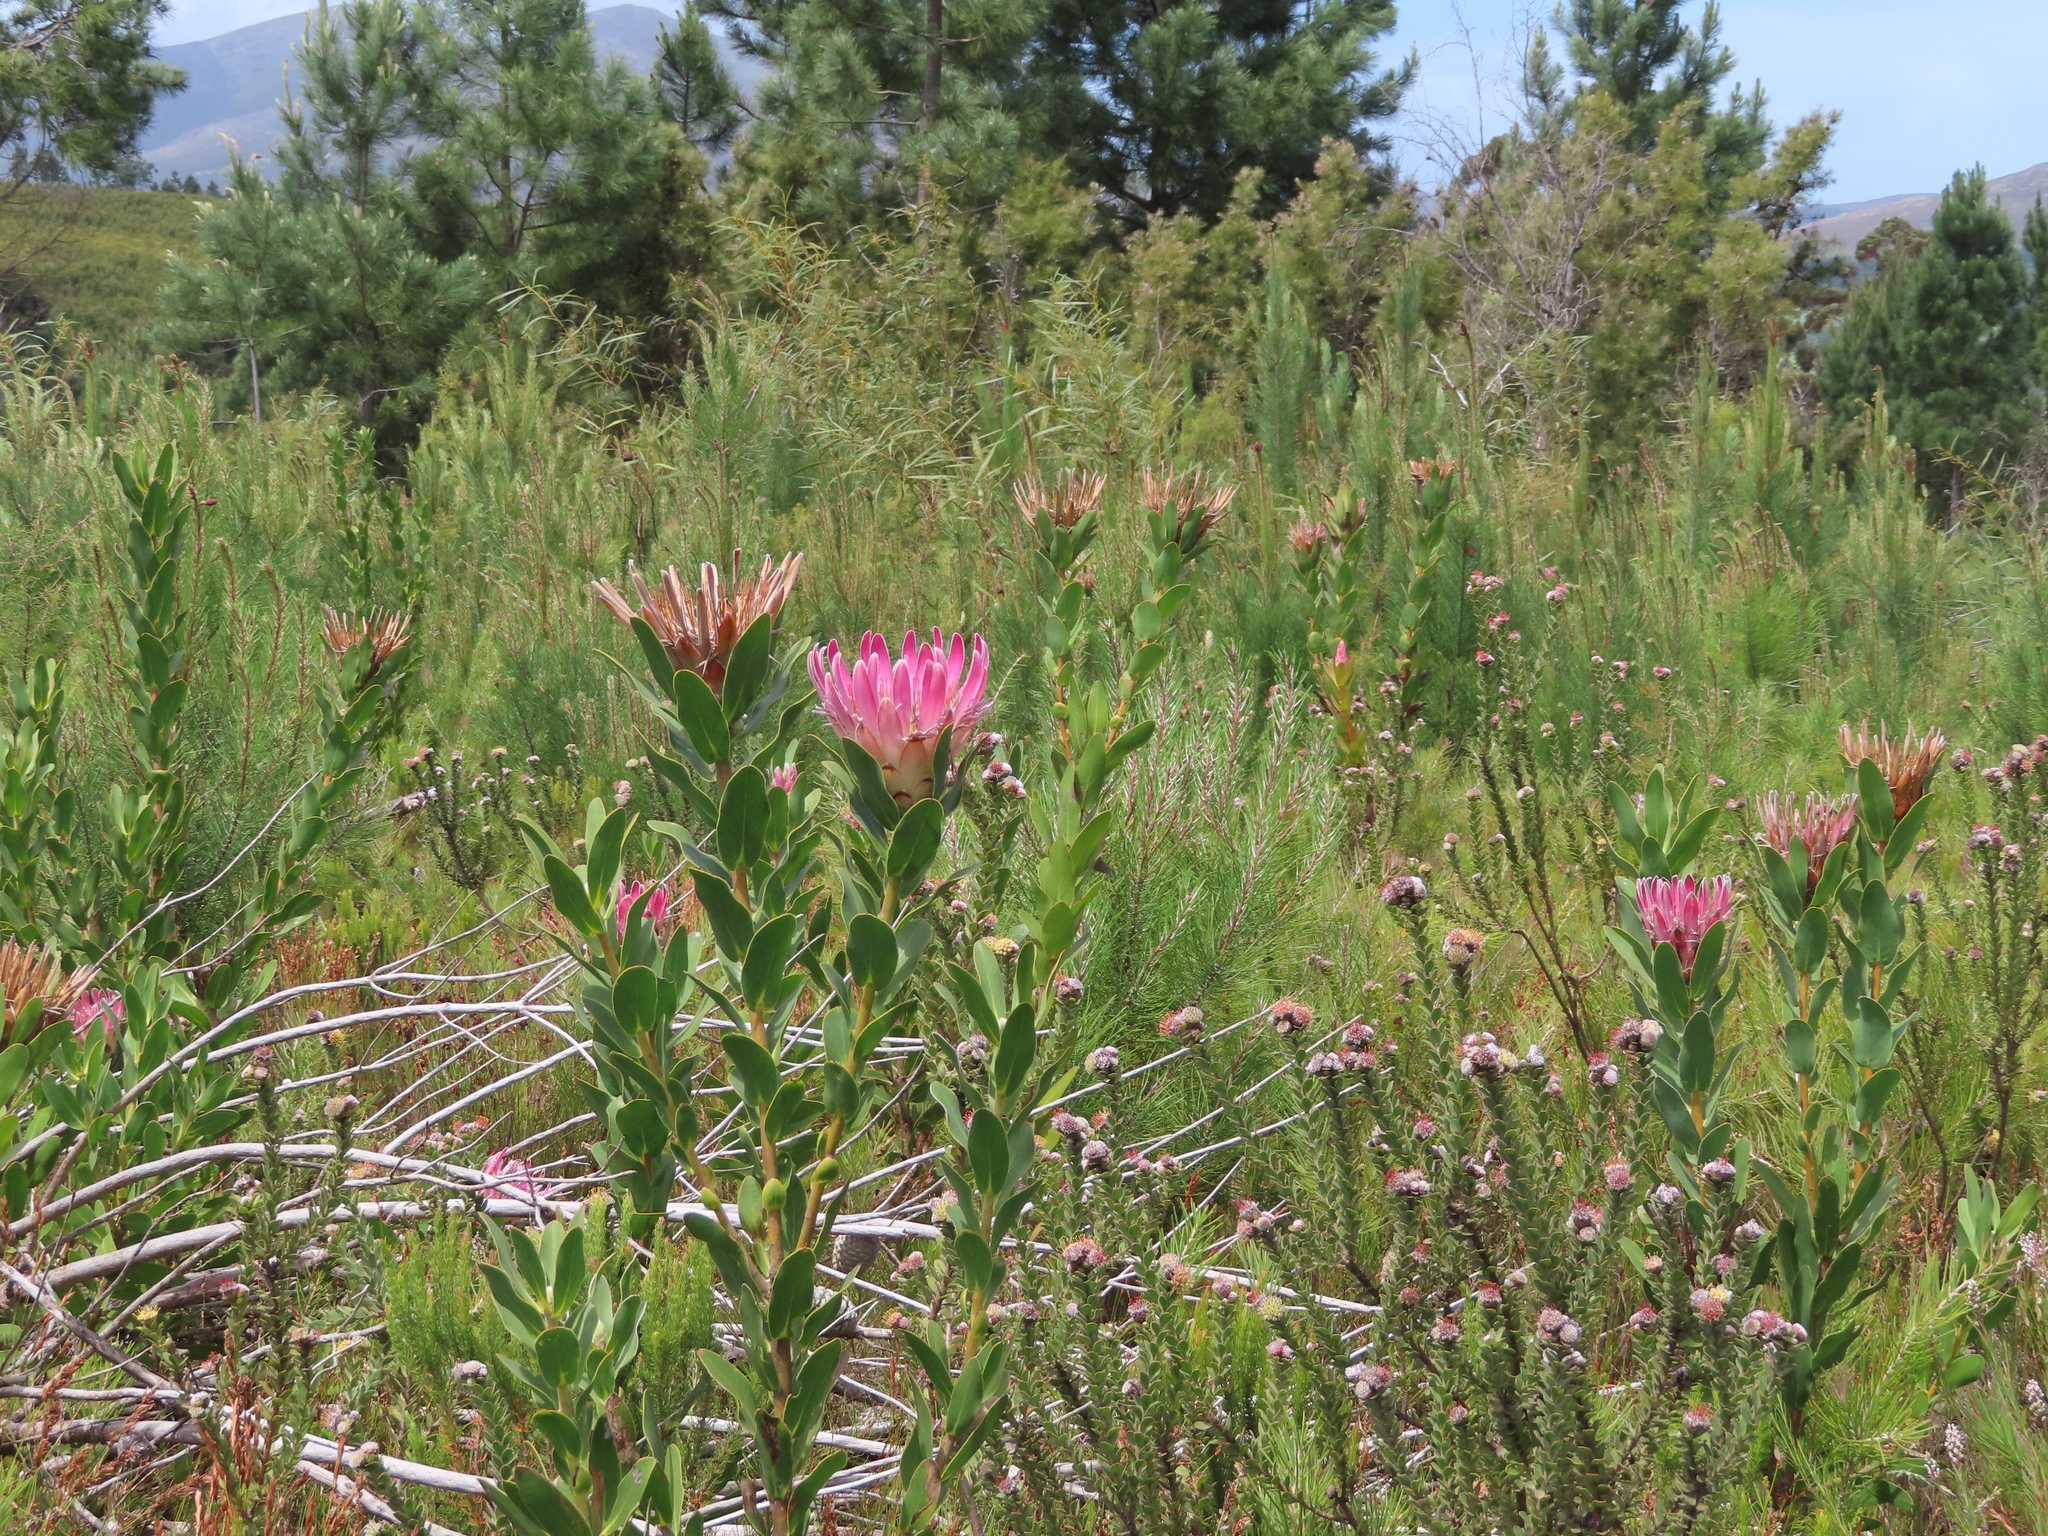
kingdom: Plantae
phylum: Tracheophyta
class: Magnoliopsida
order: Proteales
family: Proteaceae
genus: Protea
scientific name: Protea compacta
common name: Bot river protea
